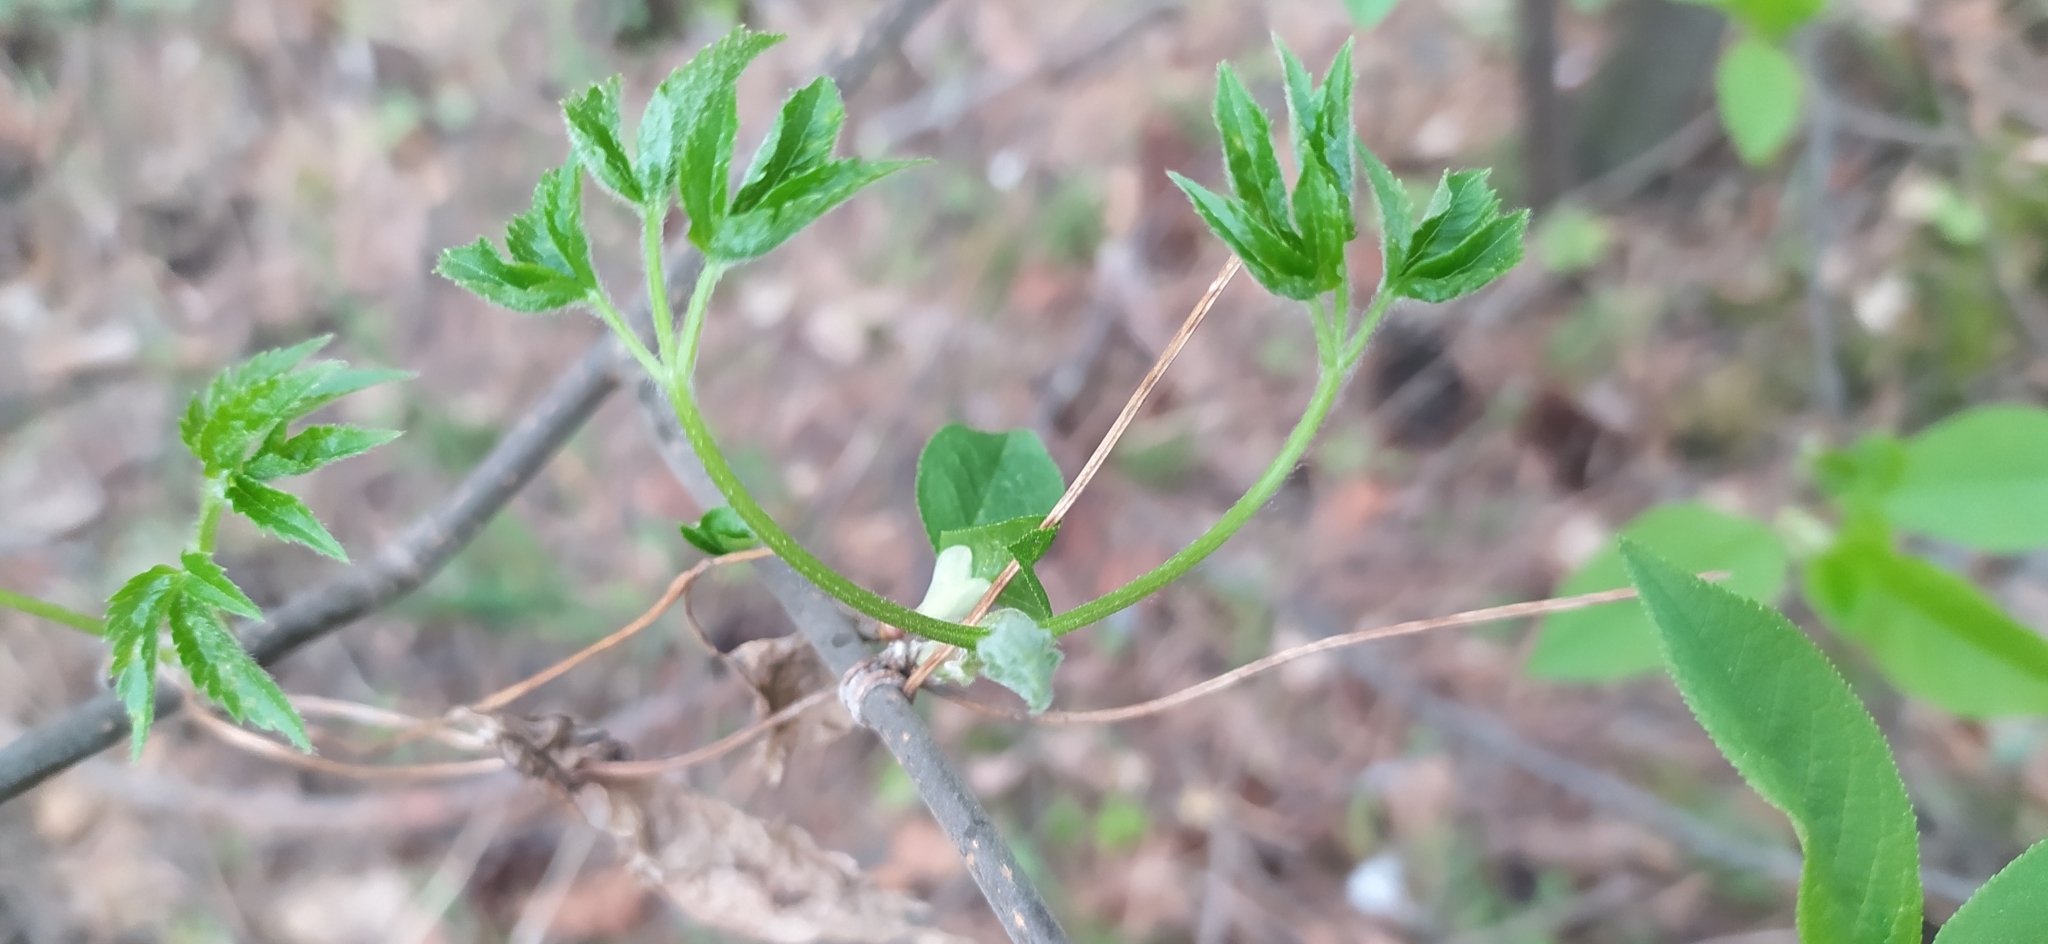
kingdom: Plantae
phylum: Tracheophyta
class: Magnoliopsida
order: Ranunculales
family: Ranunculaceae
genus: Clematis
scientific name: Clematis sibirica
